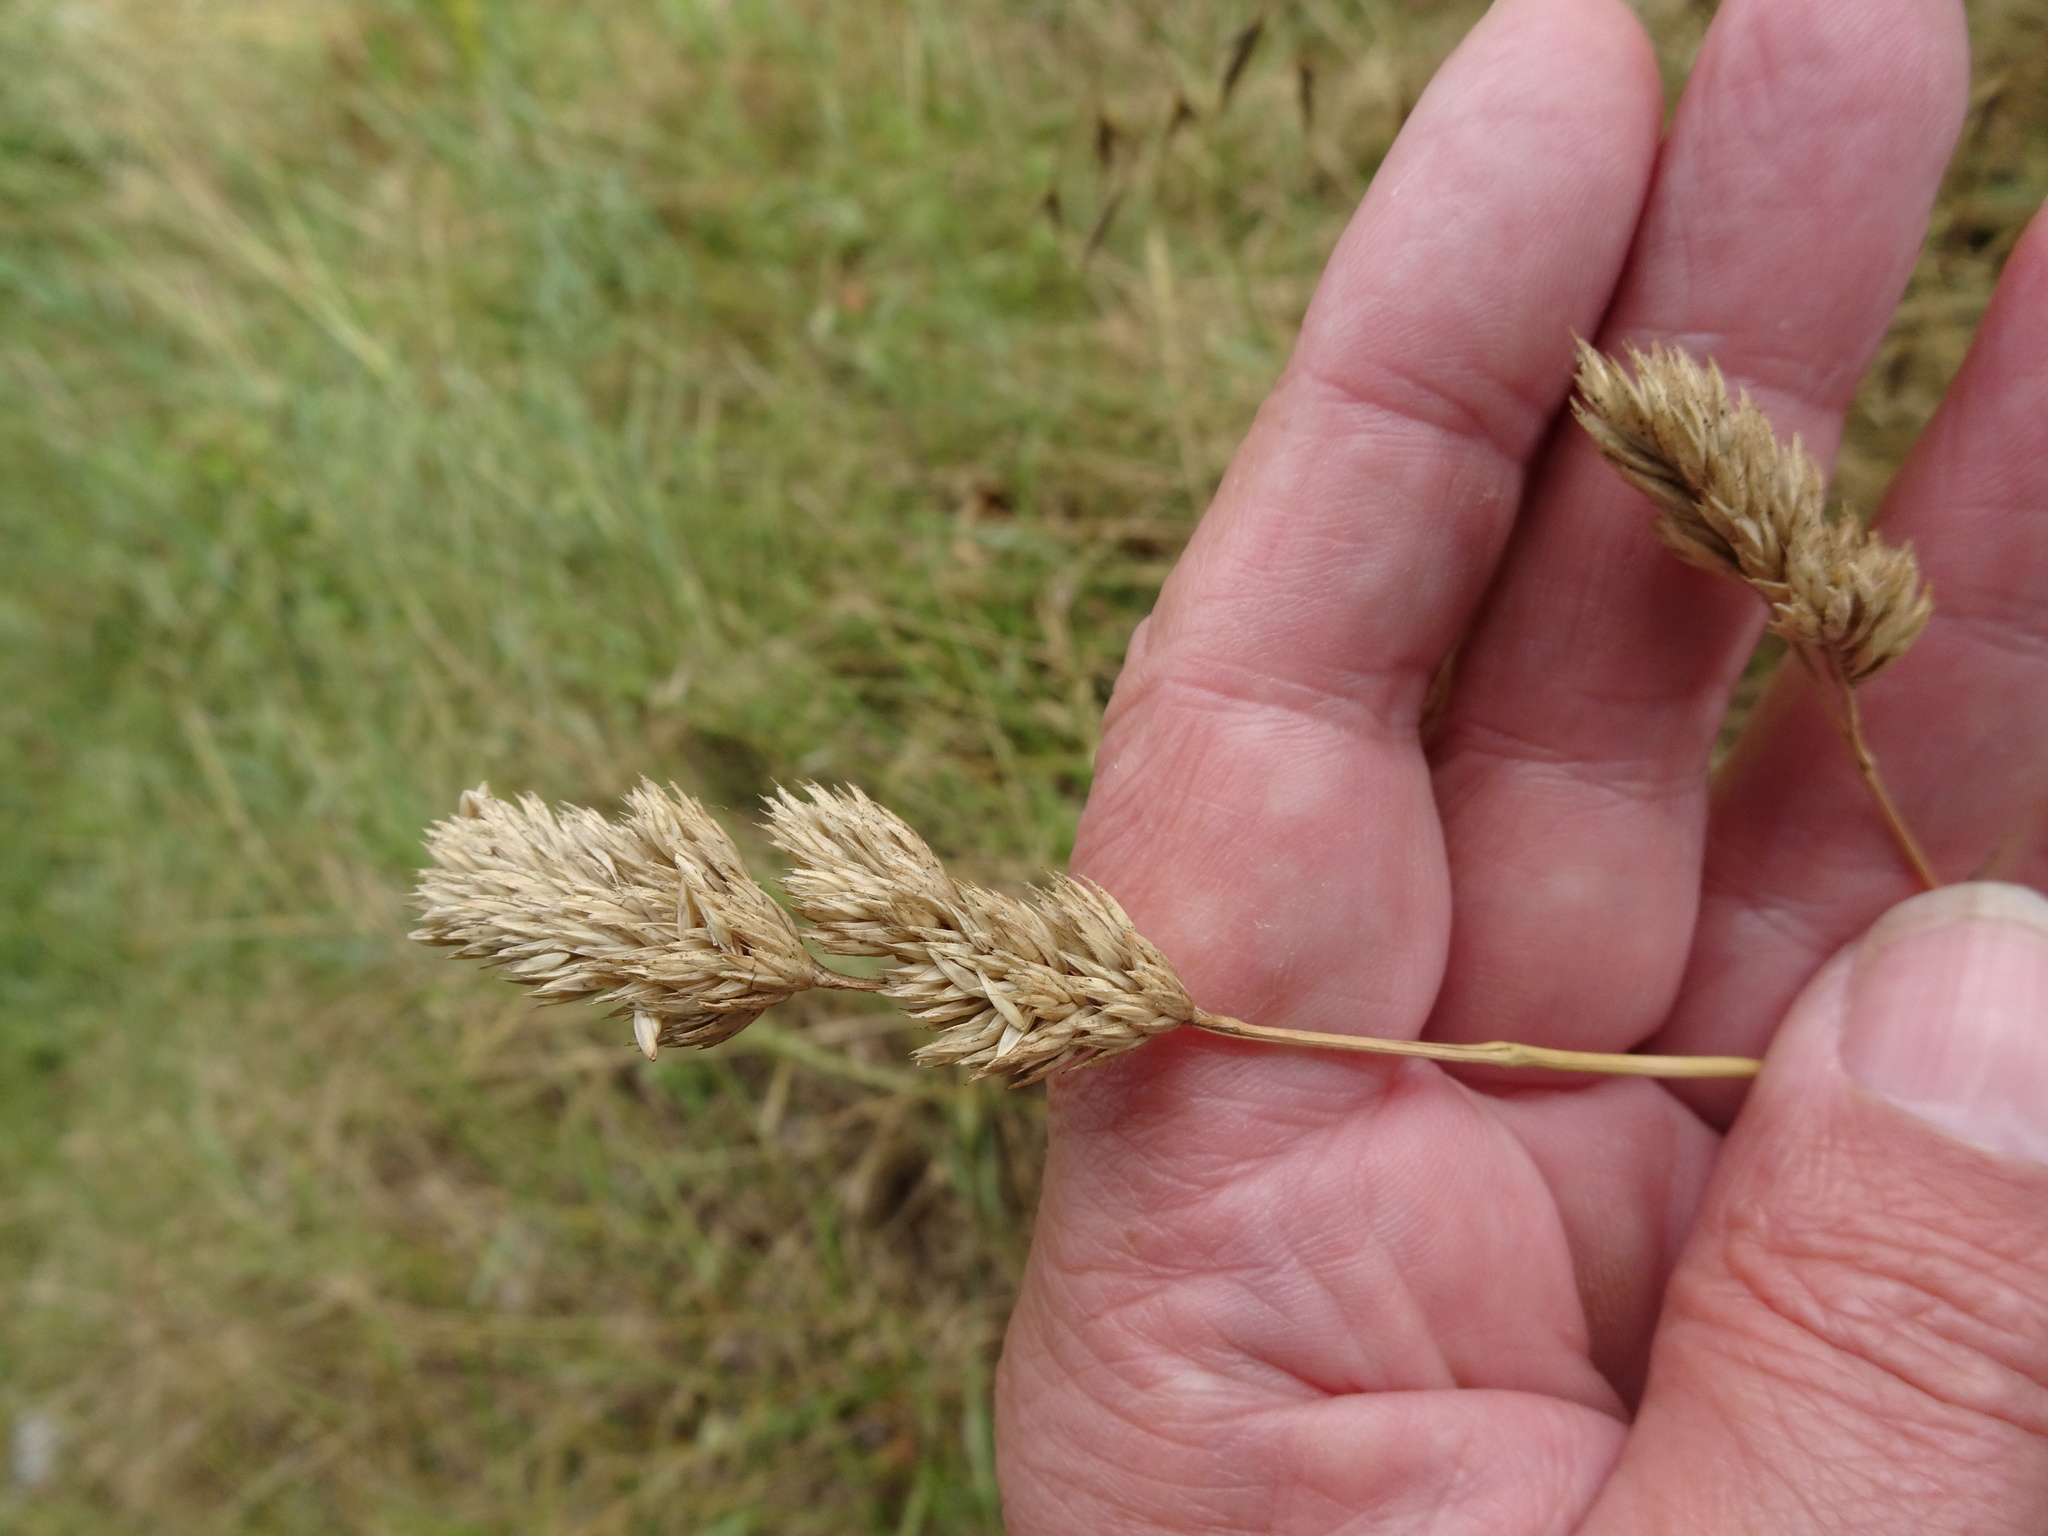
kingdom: Plantae
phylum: Tracheophyta
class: Liliopsida
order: Poales
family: Poaceae
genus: Dactylis
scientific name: Dactylis glomerata
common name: Orchardgrass
